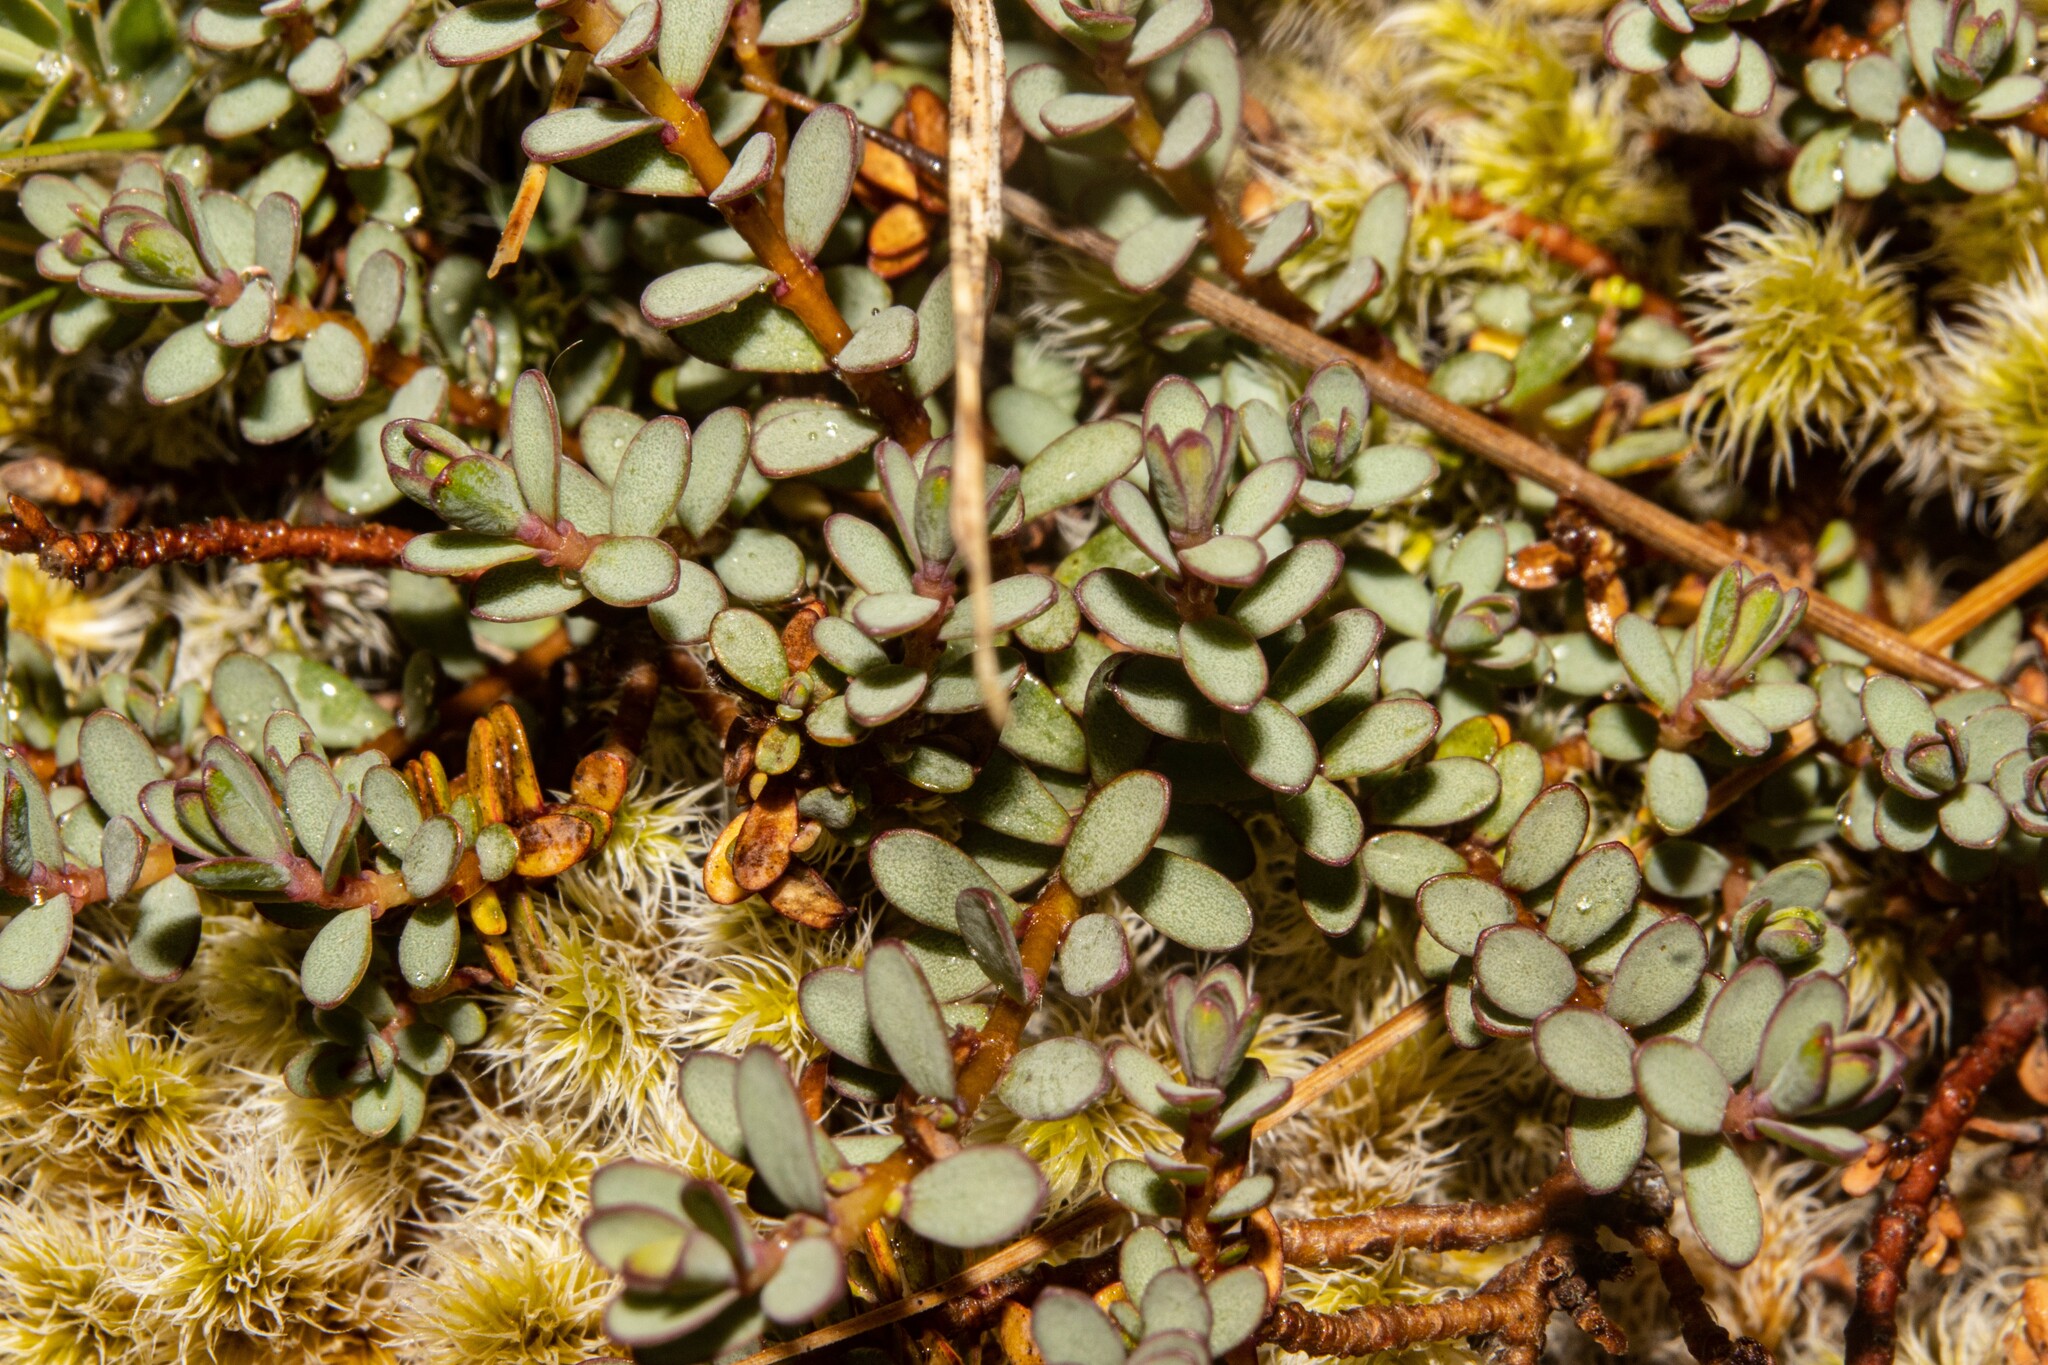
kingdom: Plantae
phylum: Tracheophyta
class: Magnoliopsida
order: Malvales
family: Thymelaeaceae
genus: Pimelea
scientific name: Pimelea prostrata
